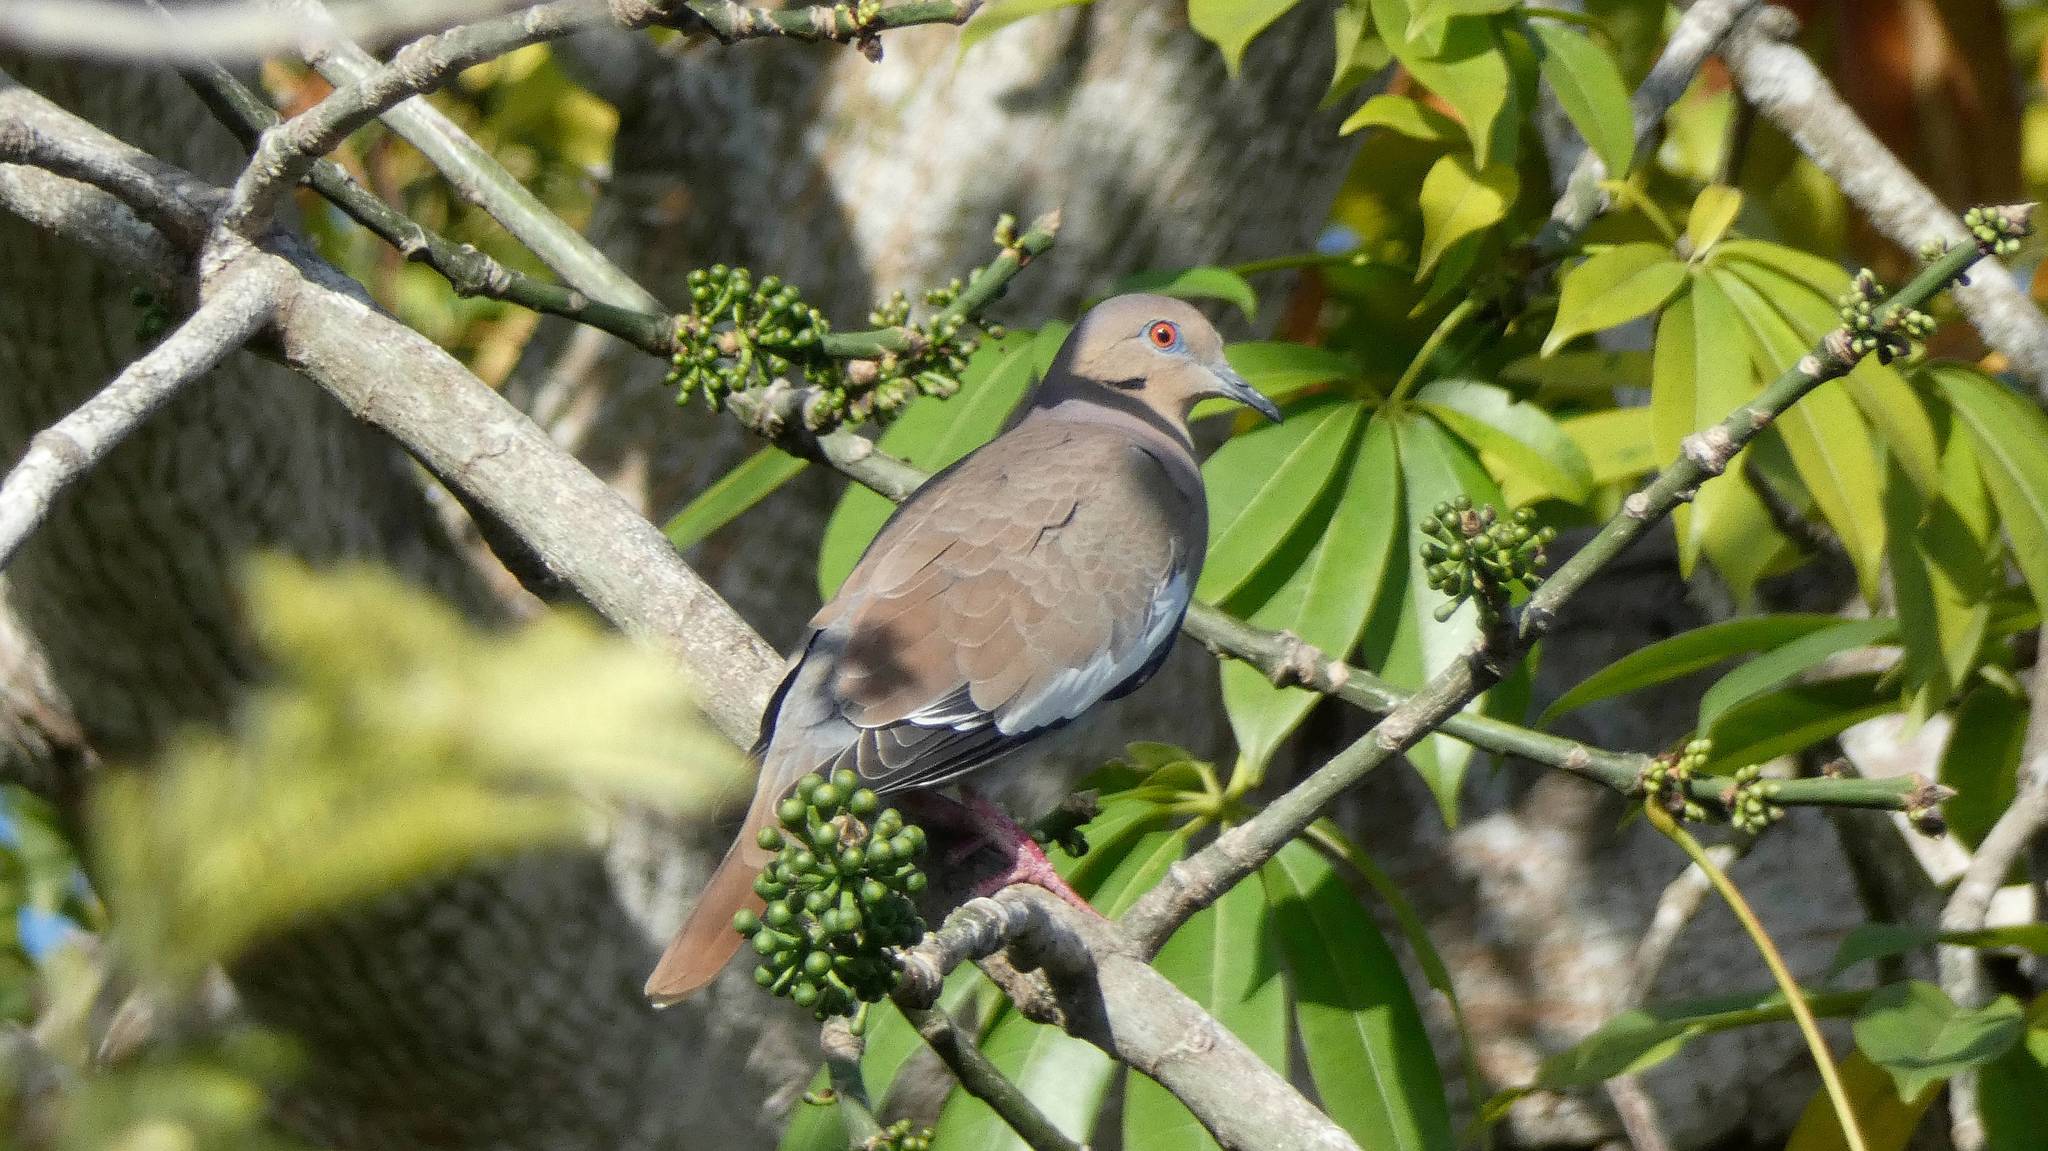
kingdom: Animalia
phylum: Chordata
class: Aves
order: Columbiformes
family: Columbidae
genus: Zenaida
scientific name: Zenaida asiatica
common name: White-winged dove
